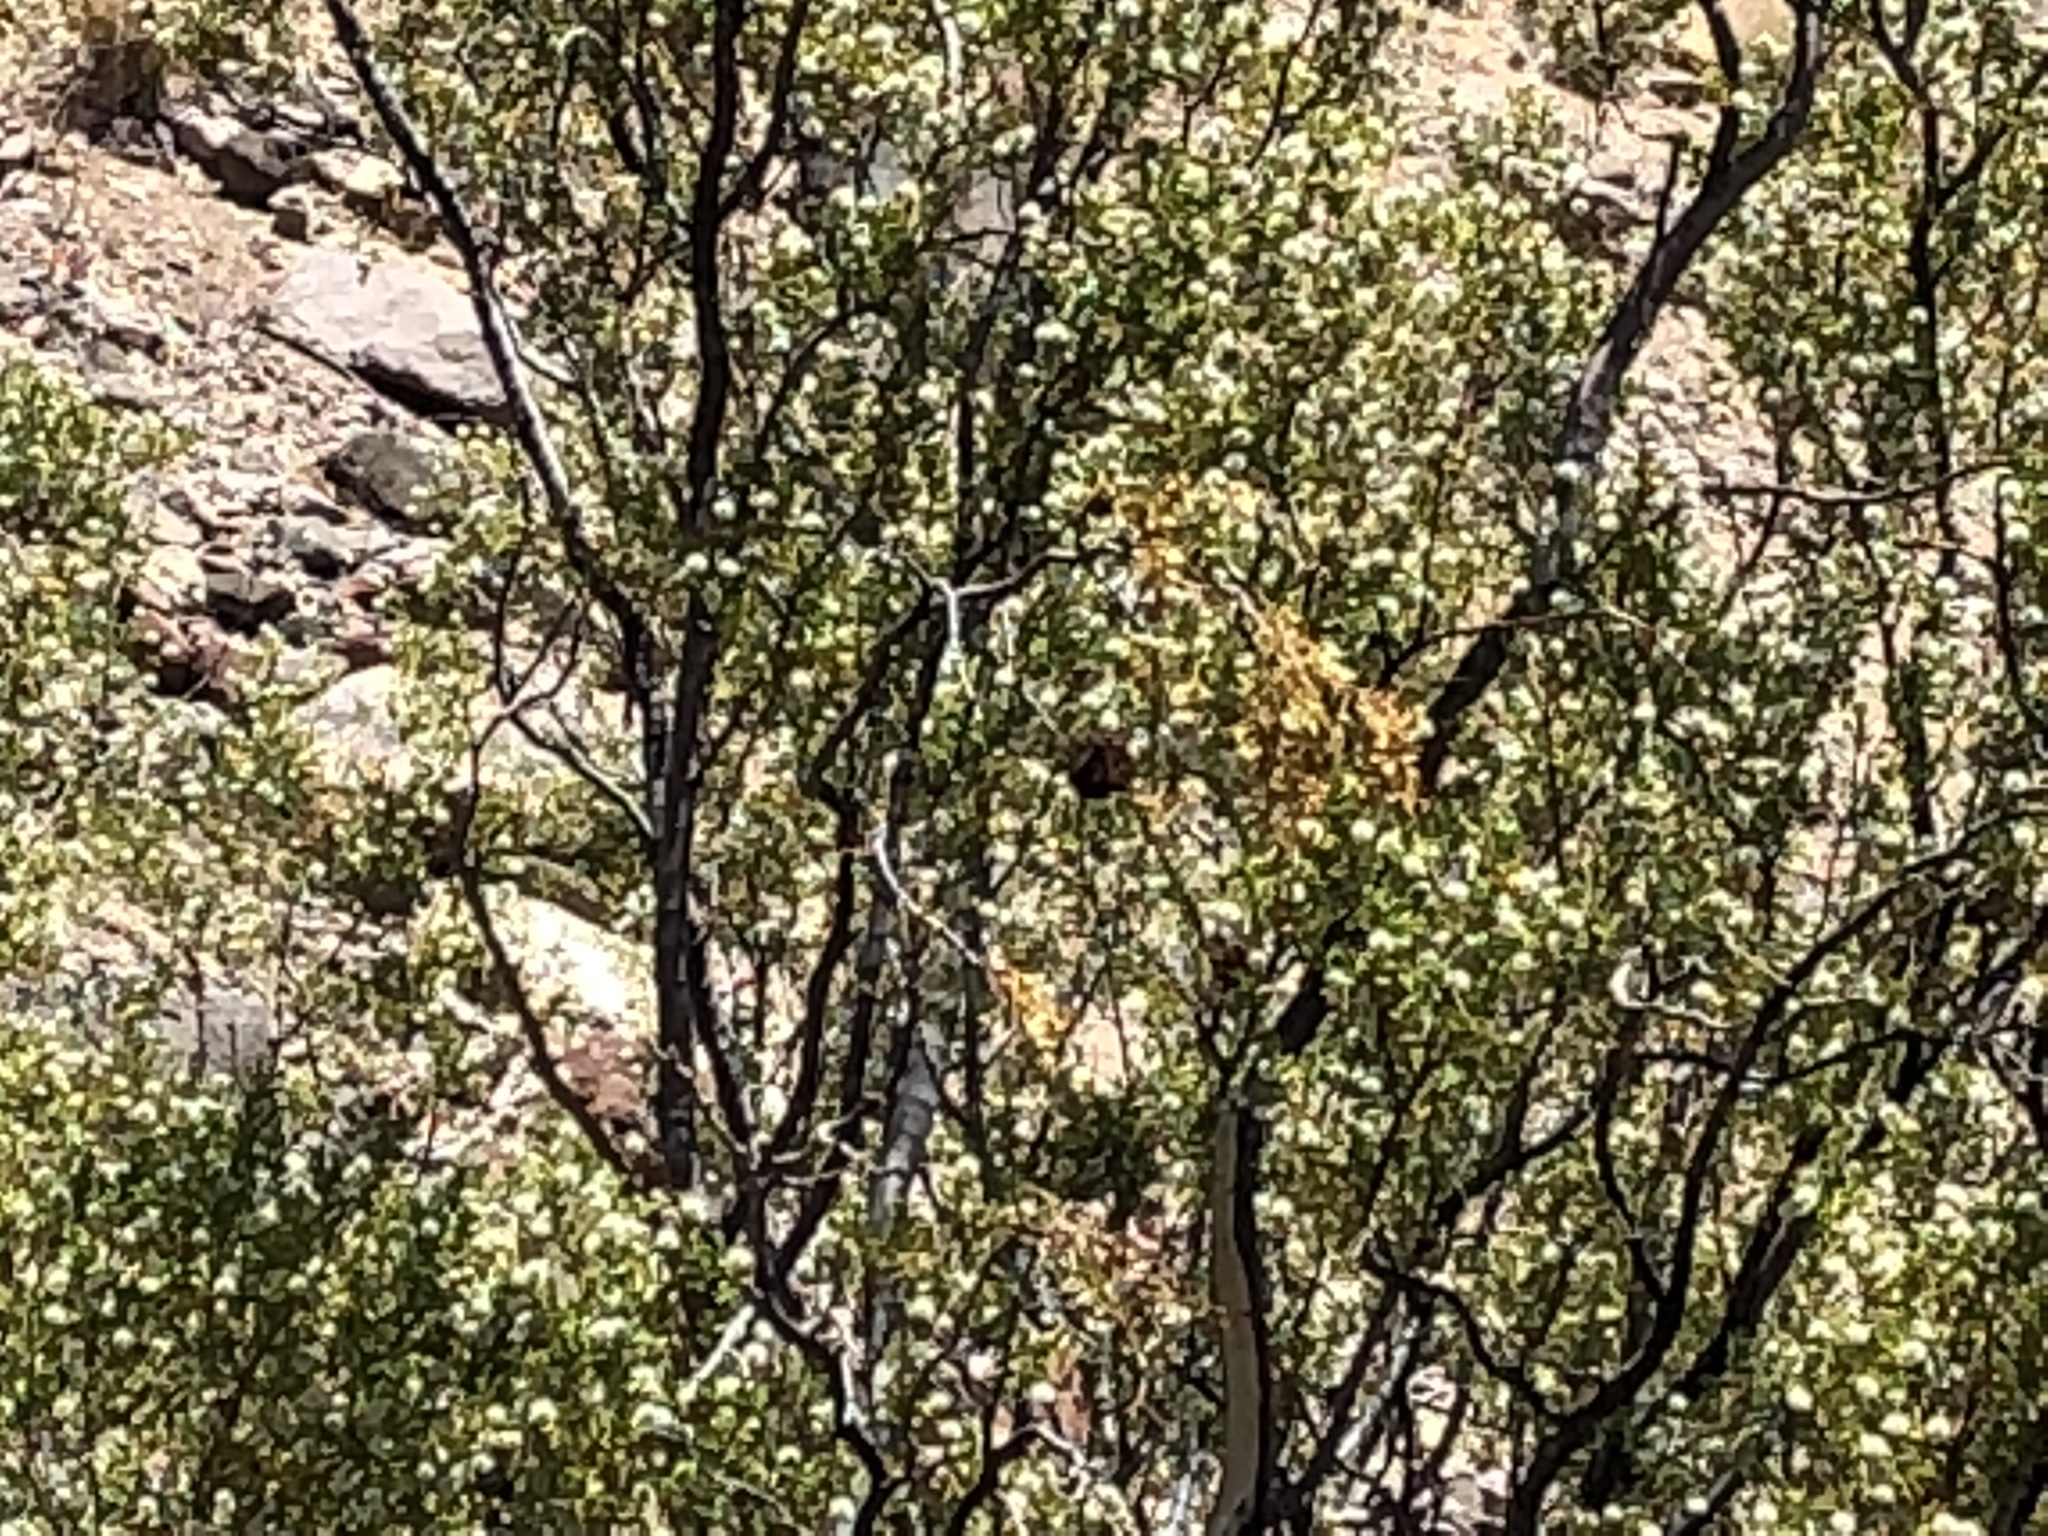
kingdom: Plantae
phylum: Tracheophyta
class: Magnoliopsida
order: Zygophyllales
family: Zygophyllaceae
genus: Larrea
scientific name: Larrea tridentata
